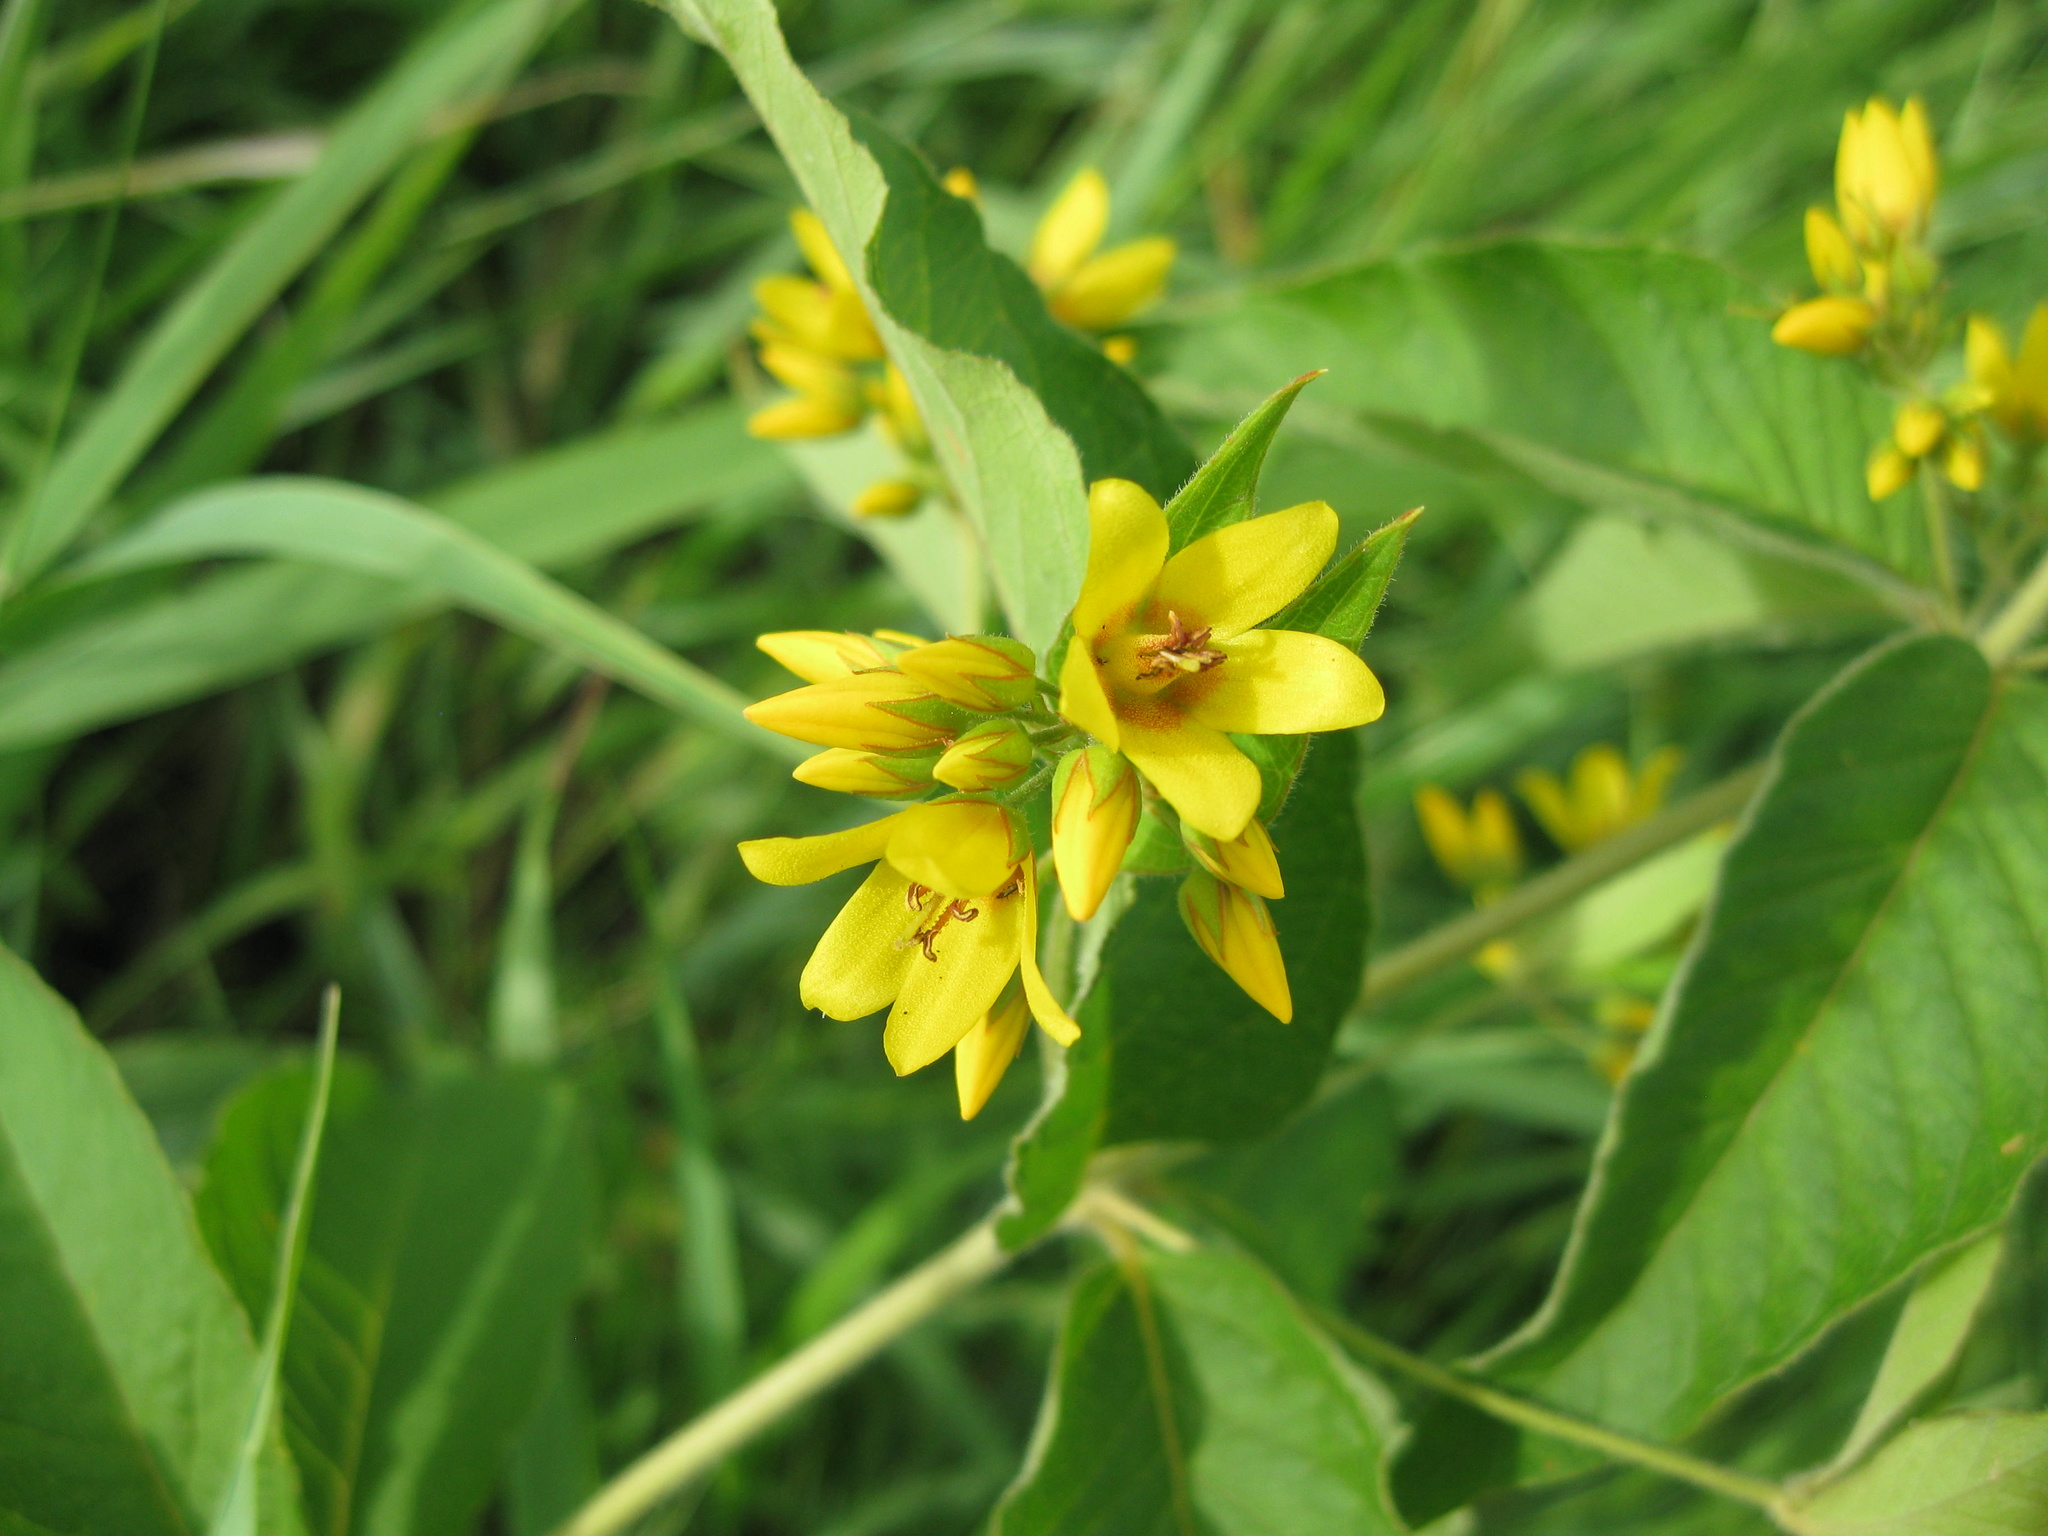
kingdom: Plantae
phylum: Tracheophyta
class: Magnoliopsida
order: Ericales
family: Primulaceae
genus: Lysimachia
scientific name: Lysimachia vulgaris
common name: Yellow loosestrife
